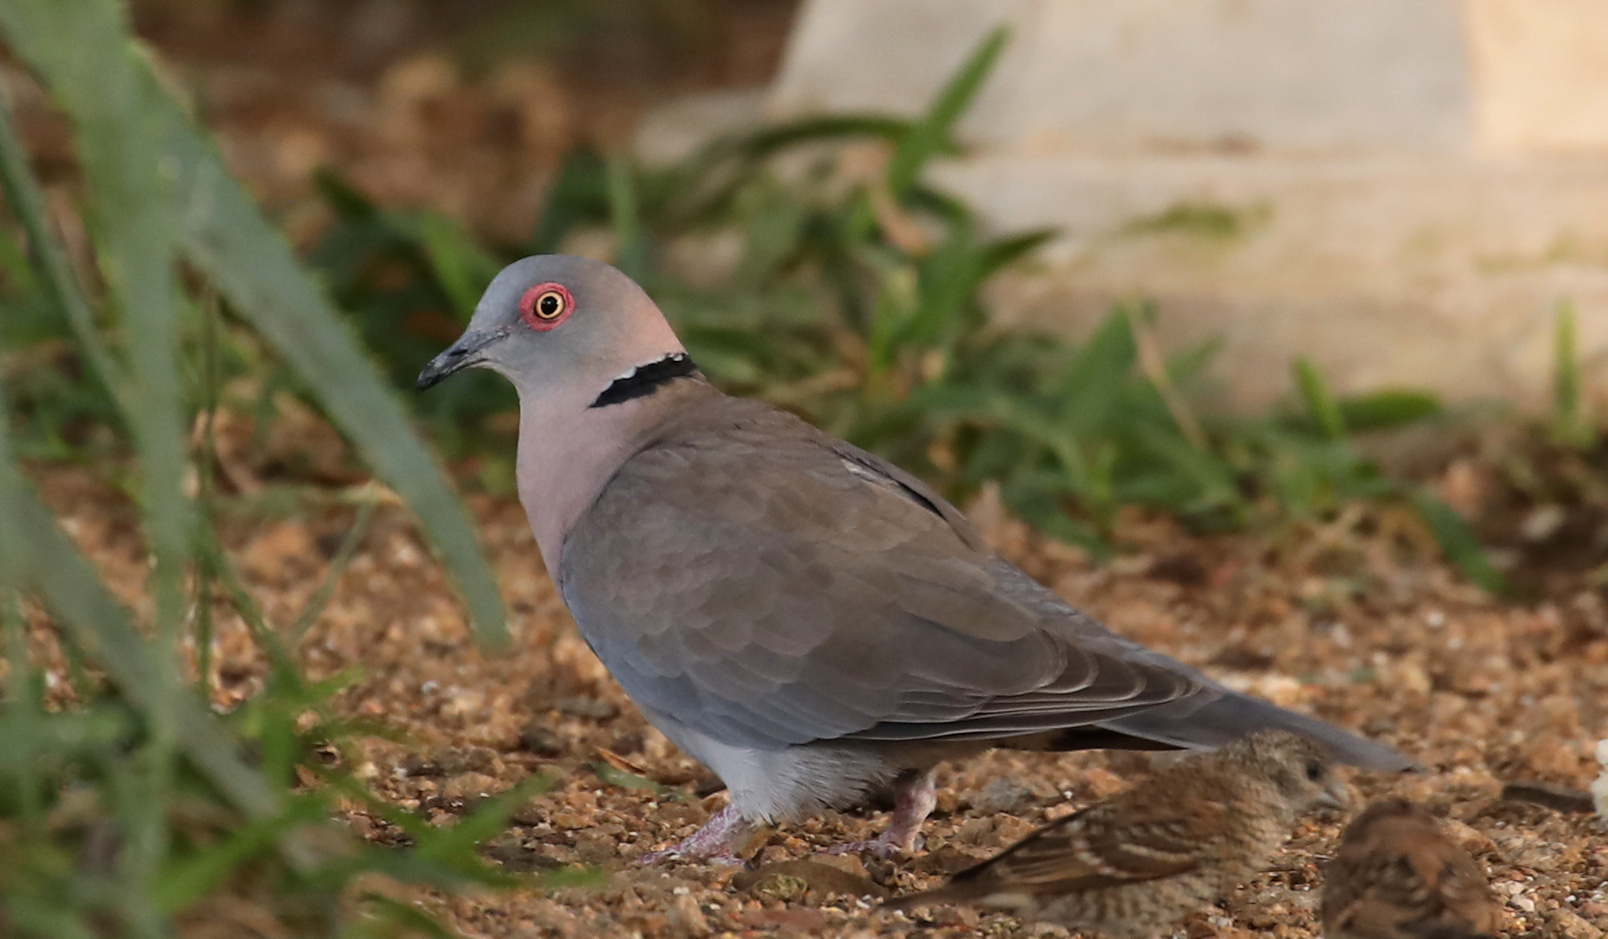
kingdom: Animalia
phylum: Chordata
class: Aves
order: Columbiformes
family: Columbidae
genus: Streptopelia
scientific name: Streptopelia decipiens
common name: Mourning collared dove
